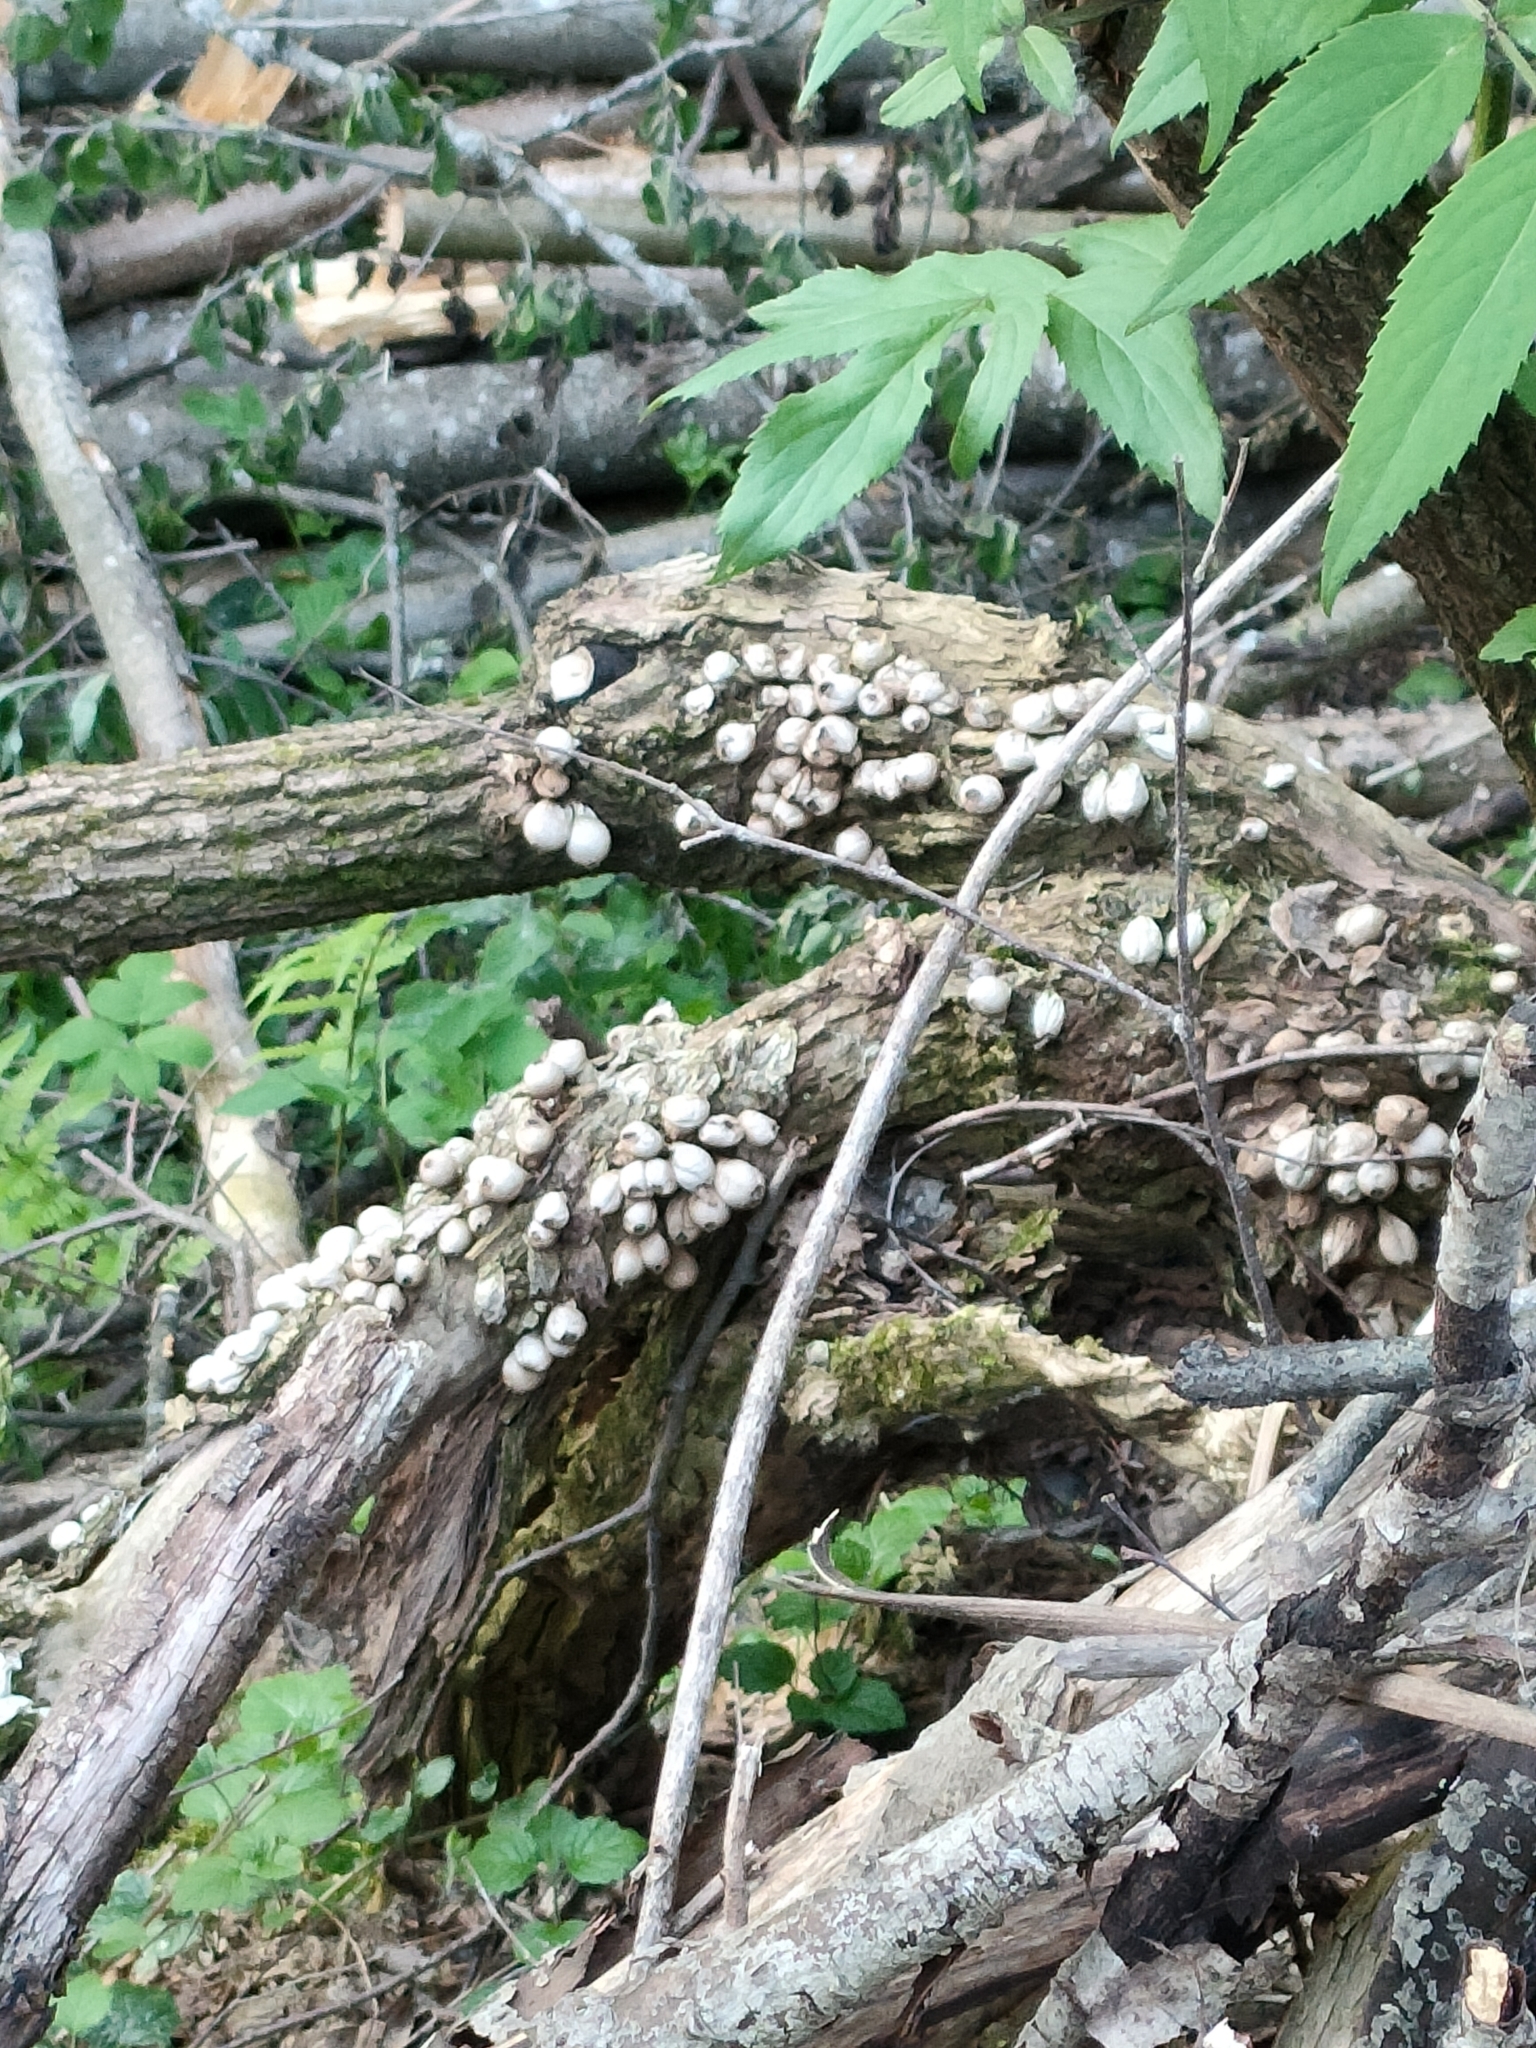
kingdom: Fungi
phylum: Basidiomycota
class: Agaricomycetes
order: Agaricales
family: Lycoperdaceae
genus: Apioperdon
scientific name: Apioperdon pyriforme
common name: Pear-shaped puffball
